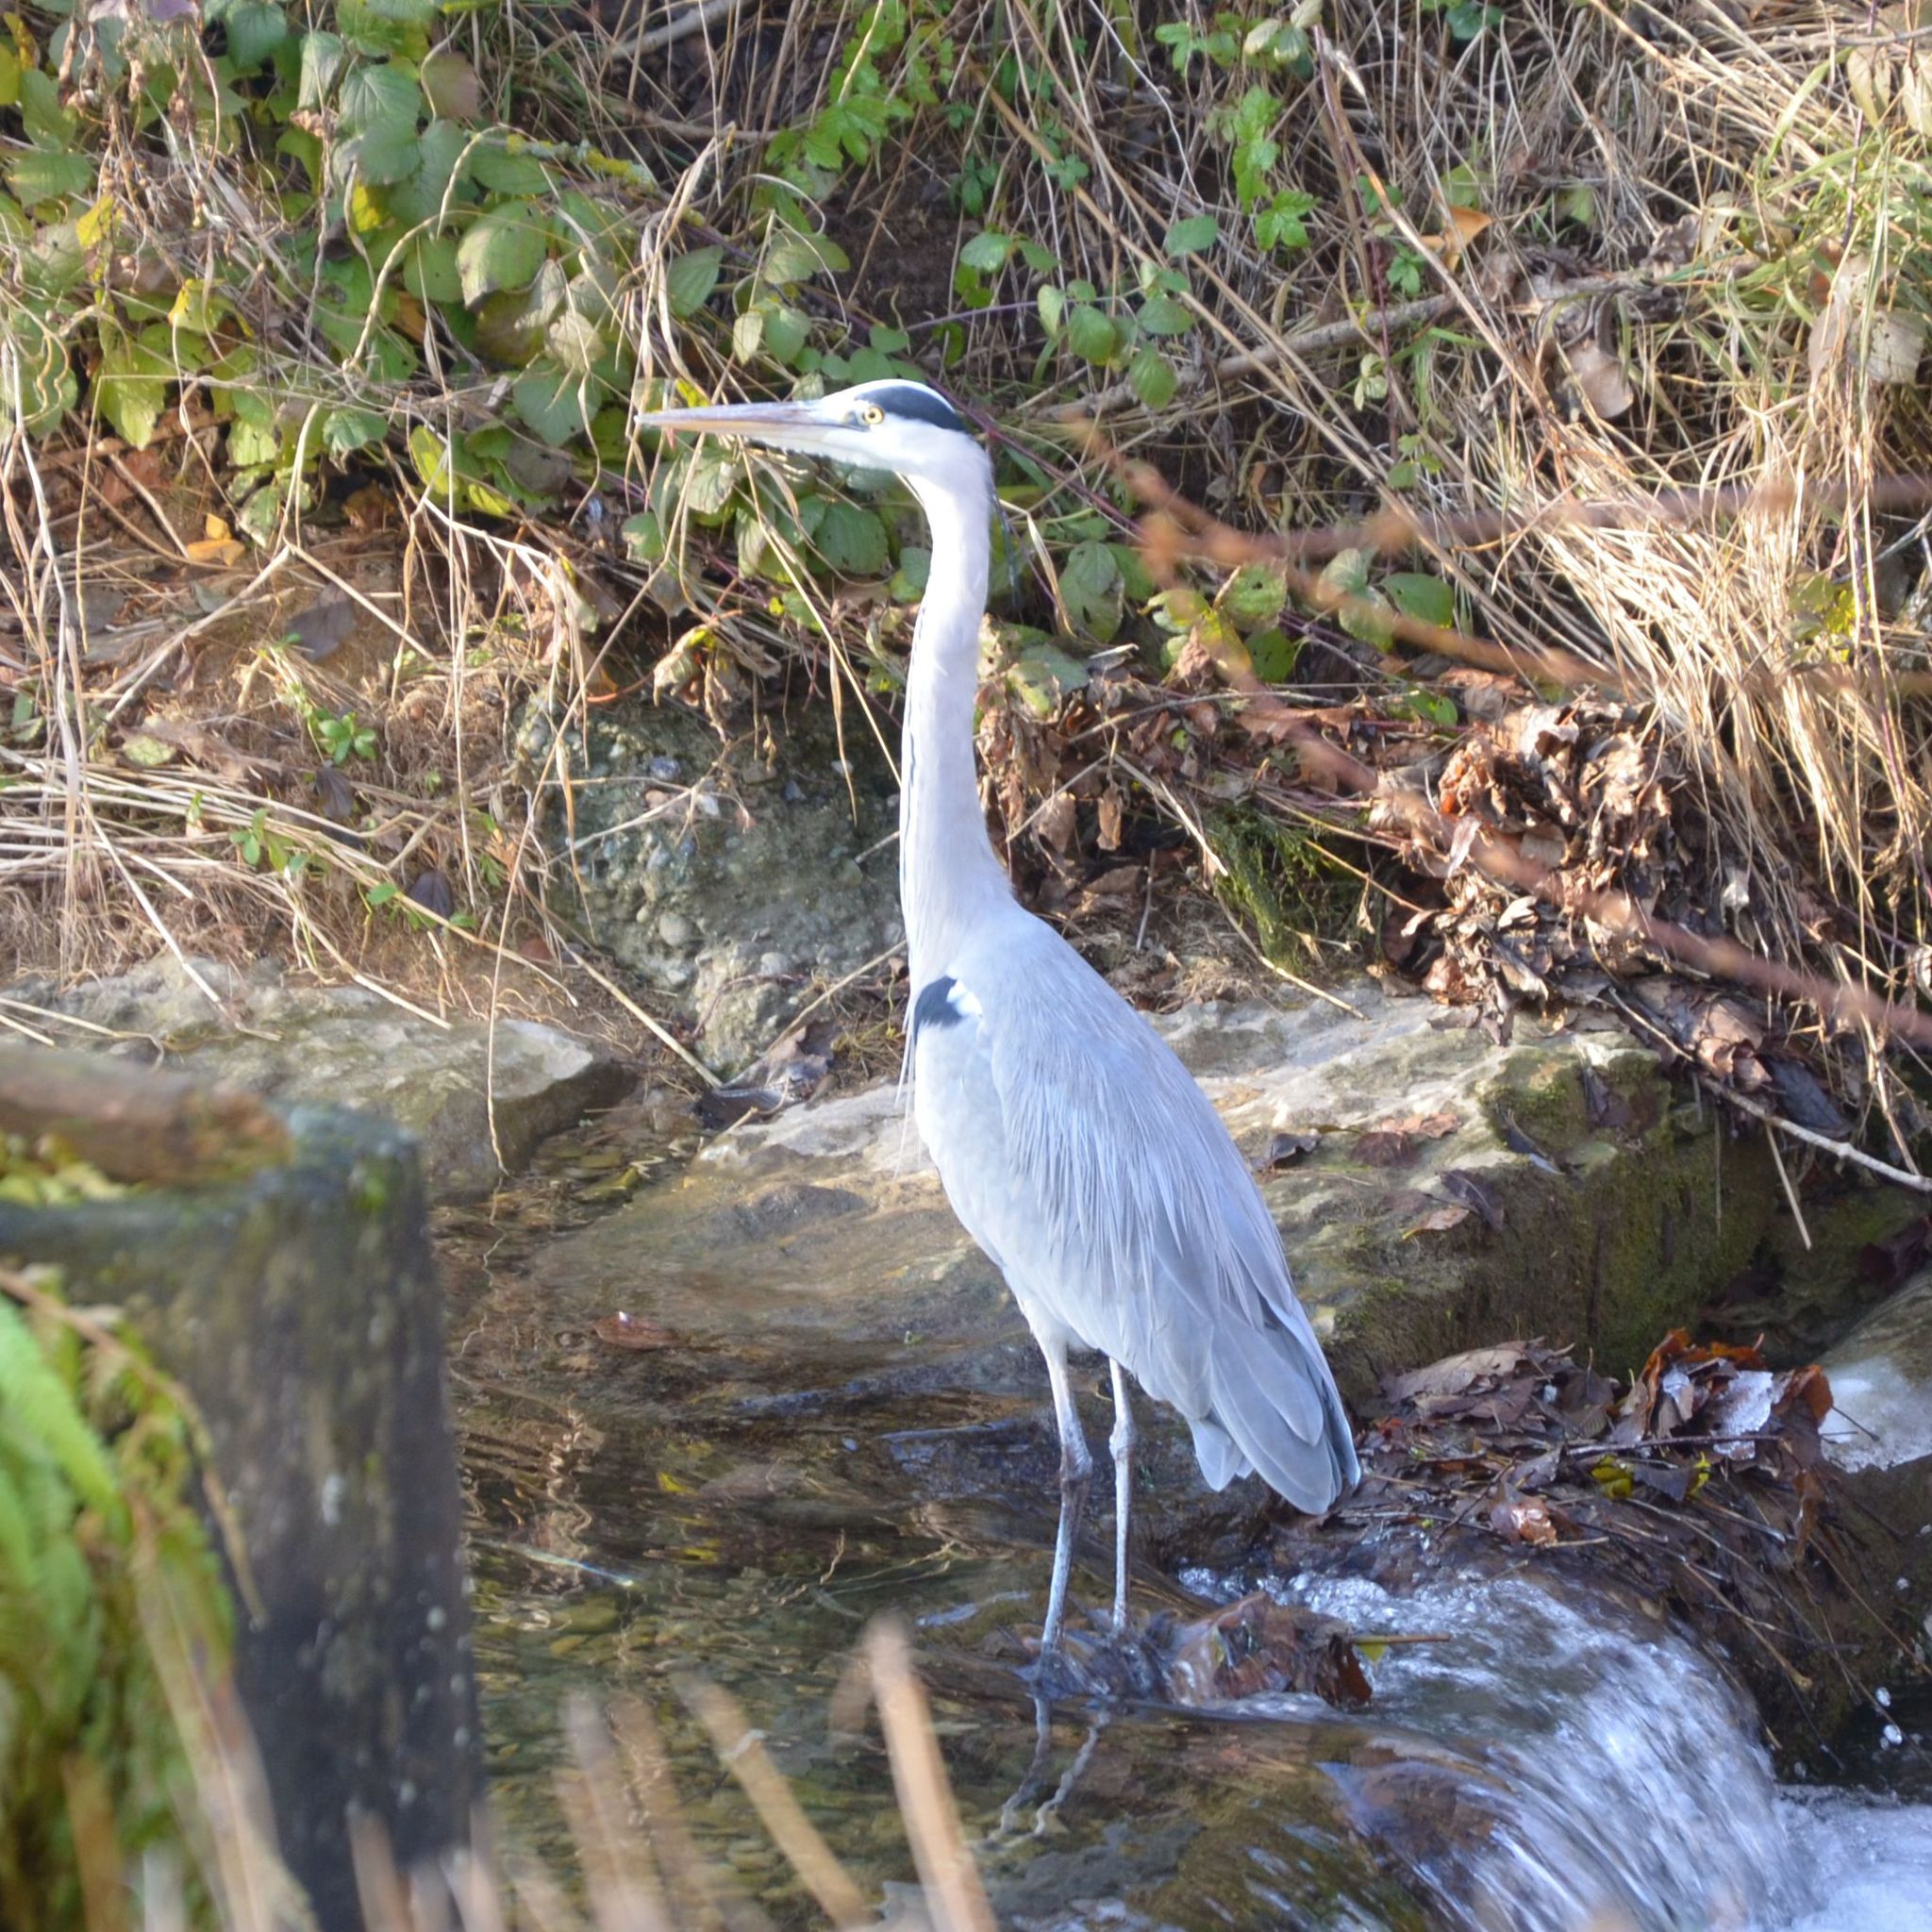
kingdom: Animalia
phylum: Chordata
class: Aves
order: Pelecaniformes
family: Ardeidae
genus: Ardea
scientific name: Ardea cinerea
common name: Grey heron
